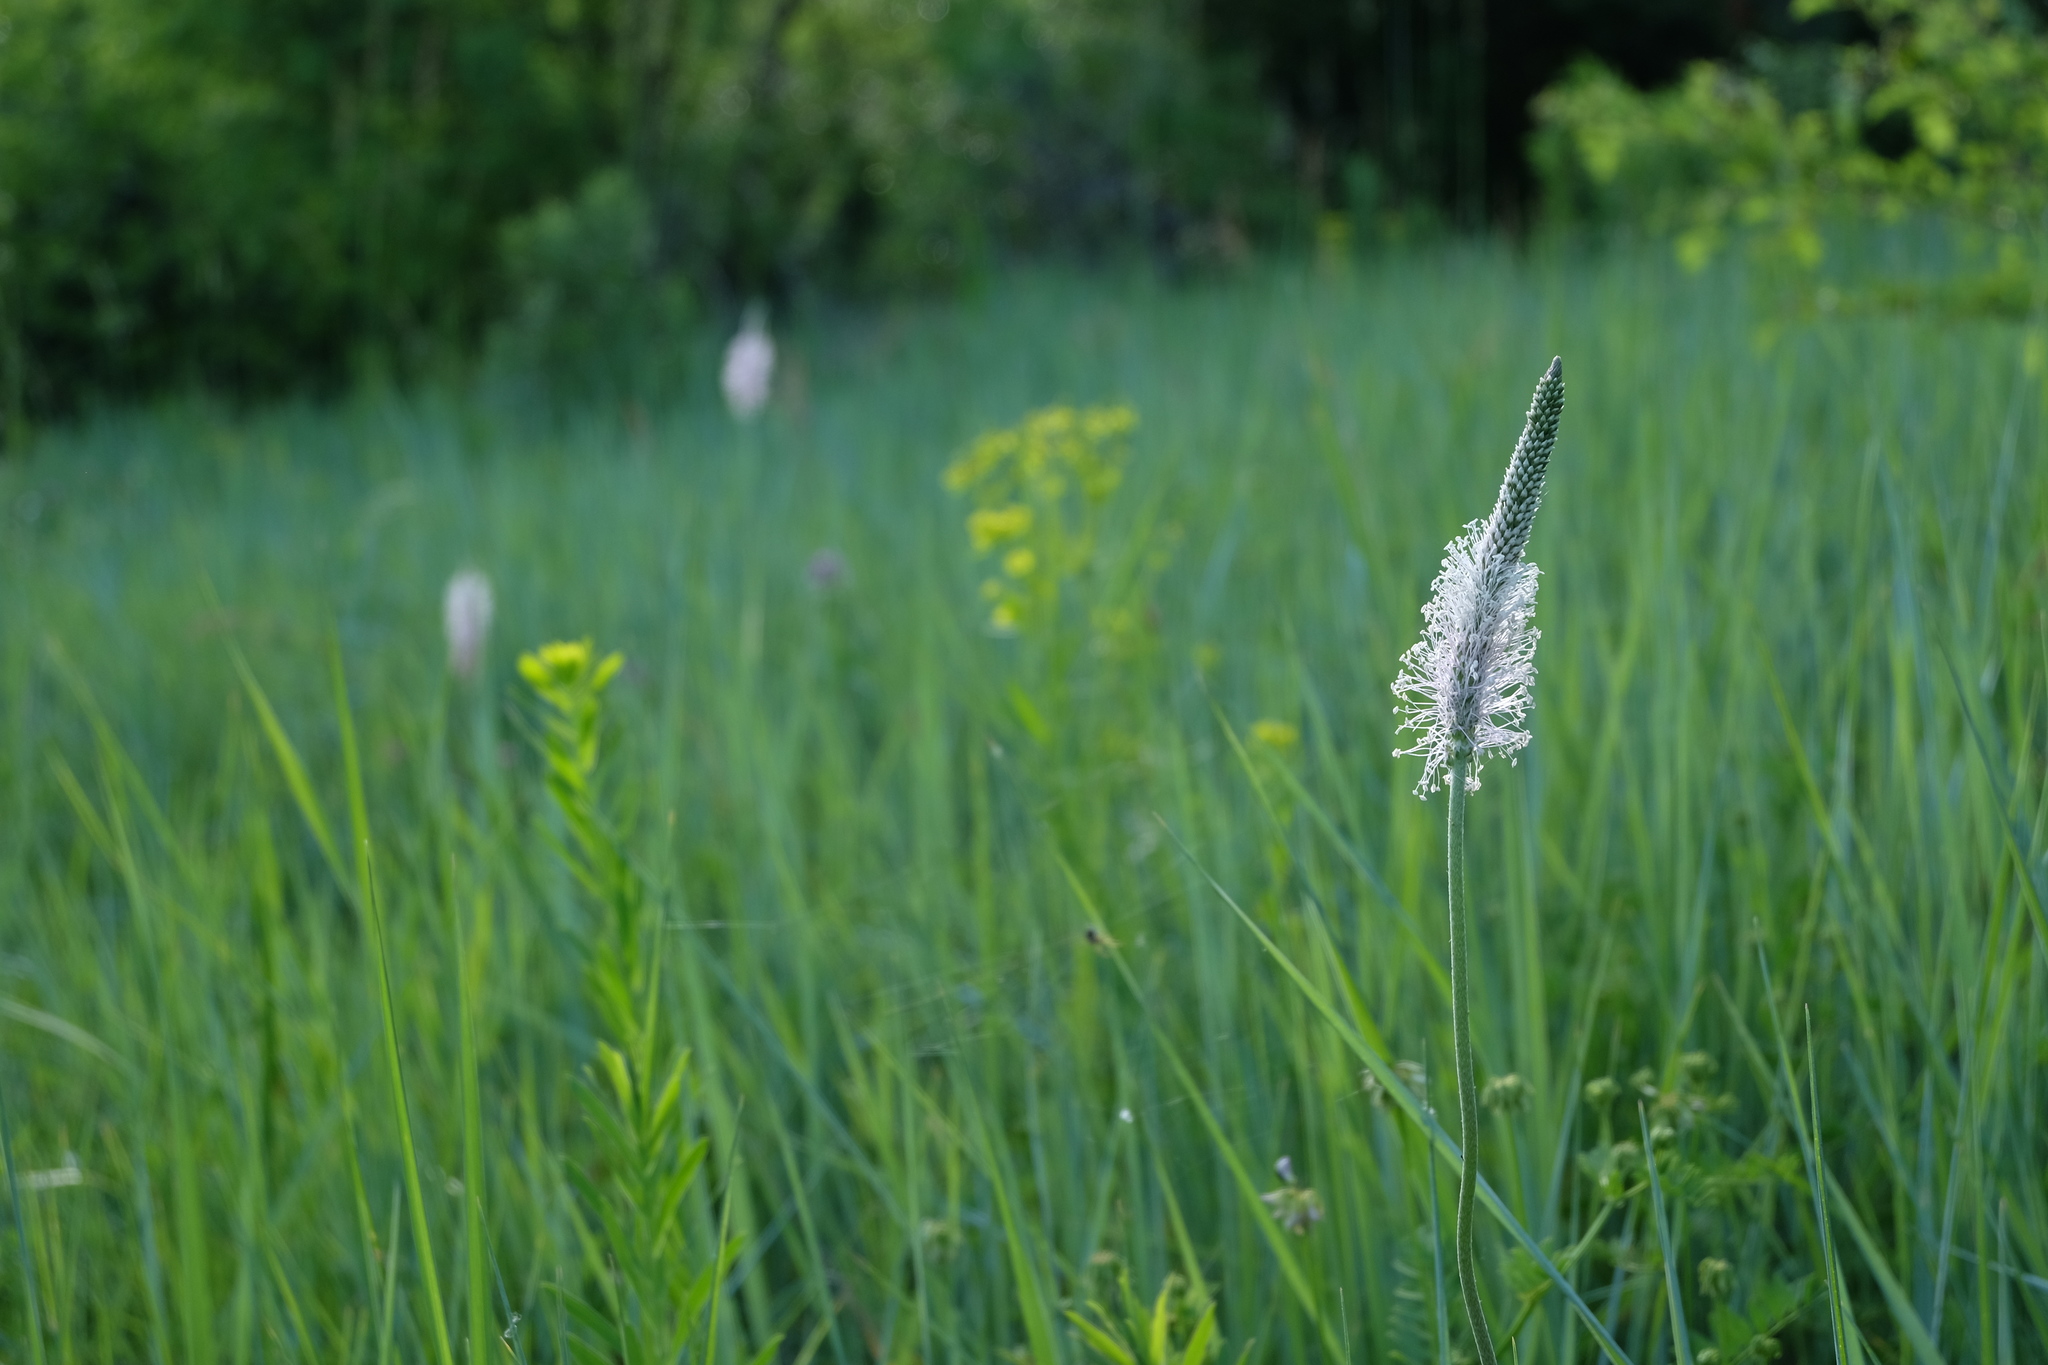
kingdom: Plantae
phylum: Tracheophyta
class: Magnoliopsida
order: Lamiales
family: Plantaginaceae
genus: Plantago
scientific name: Plantago media
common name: Hoary plantain
